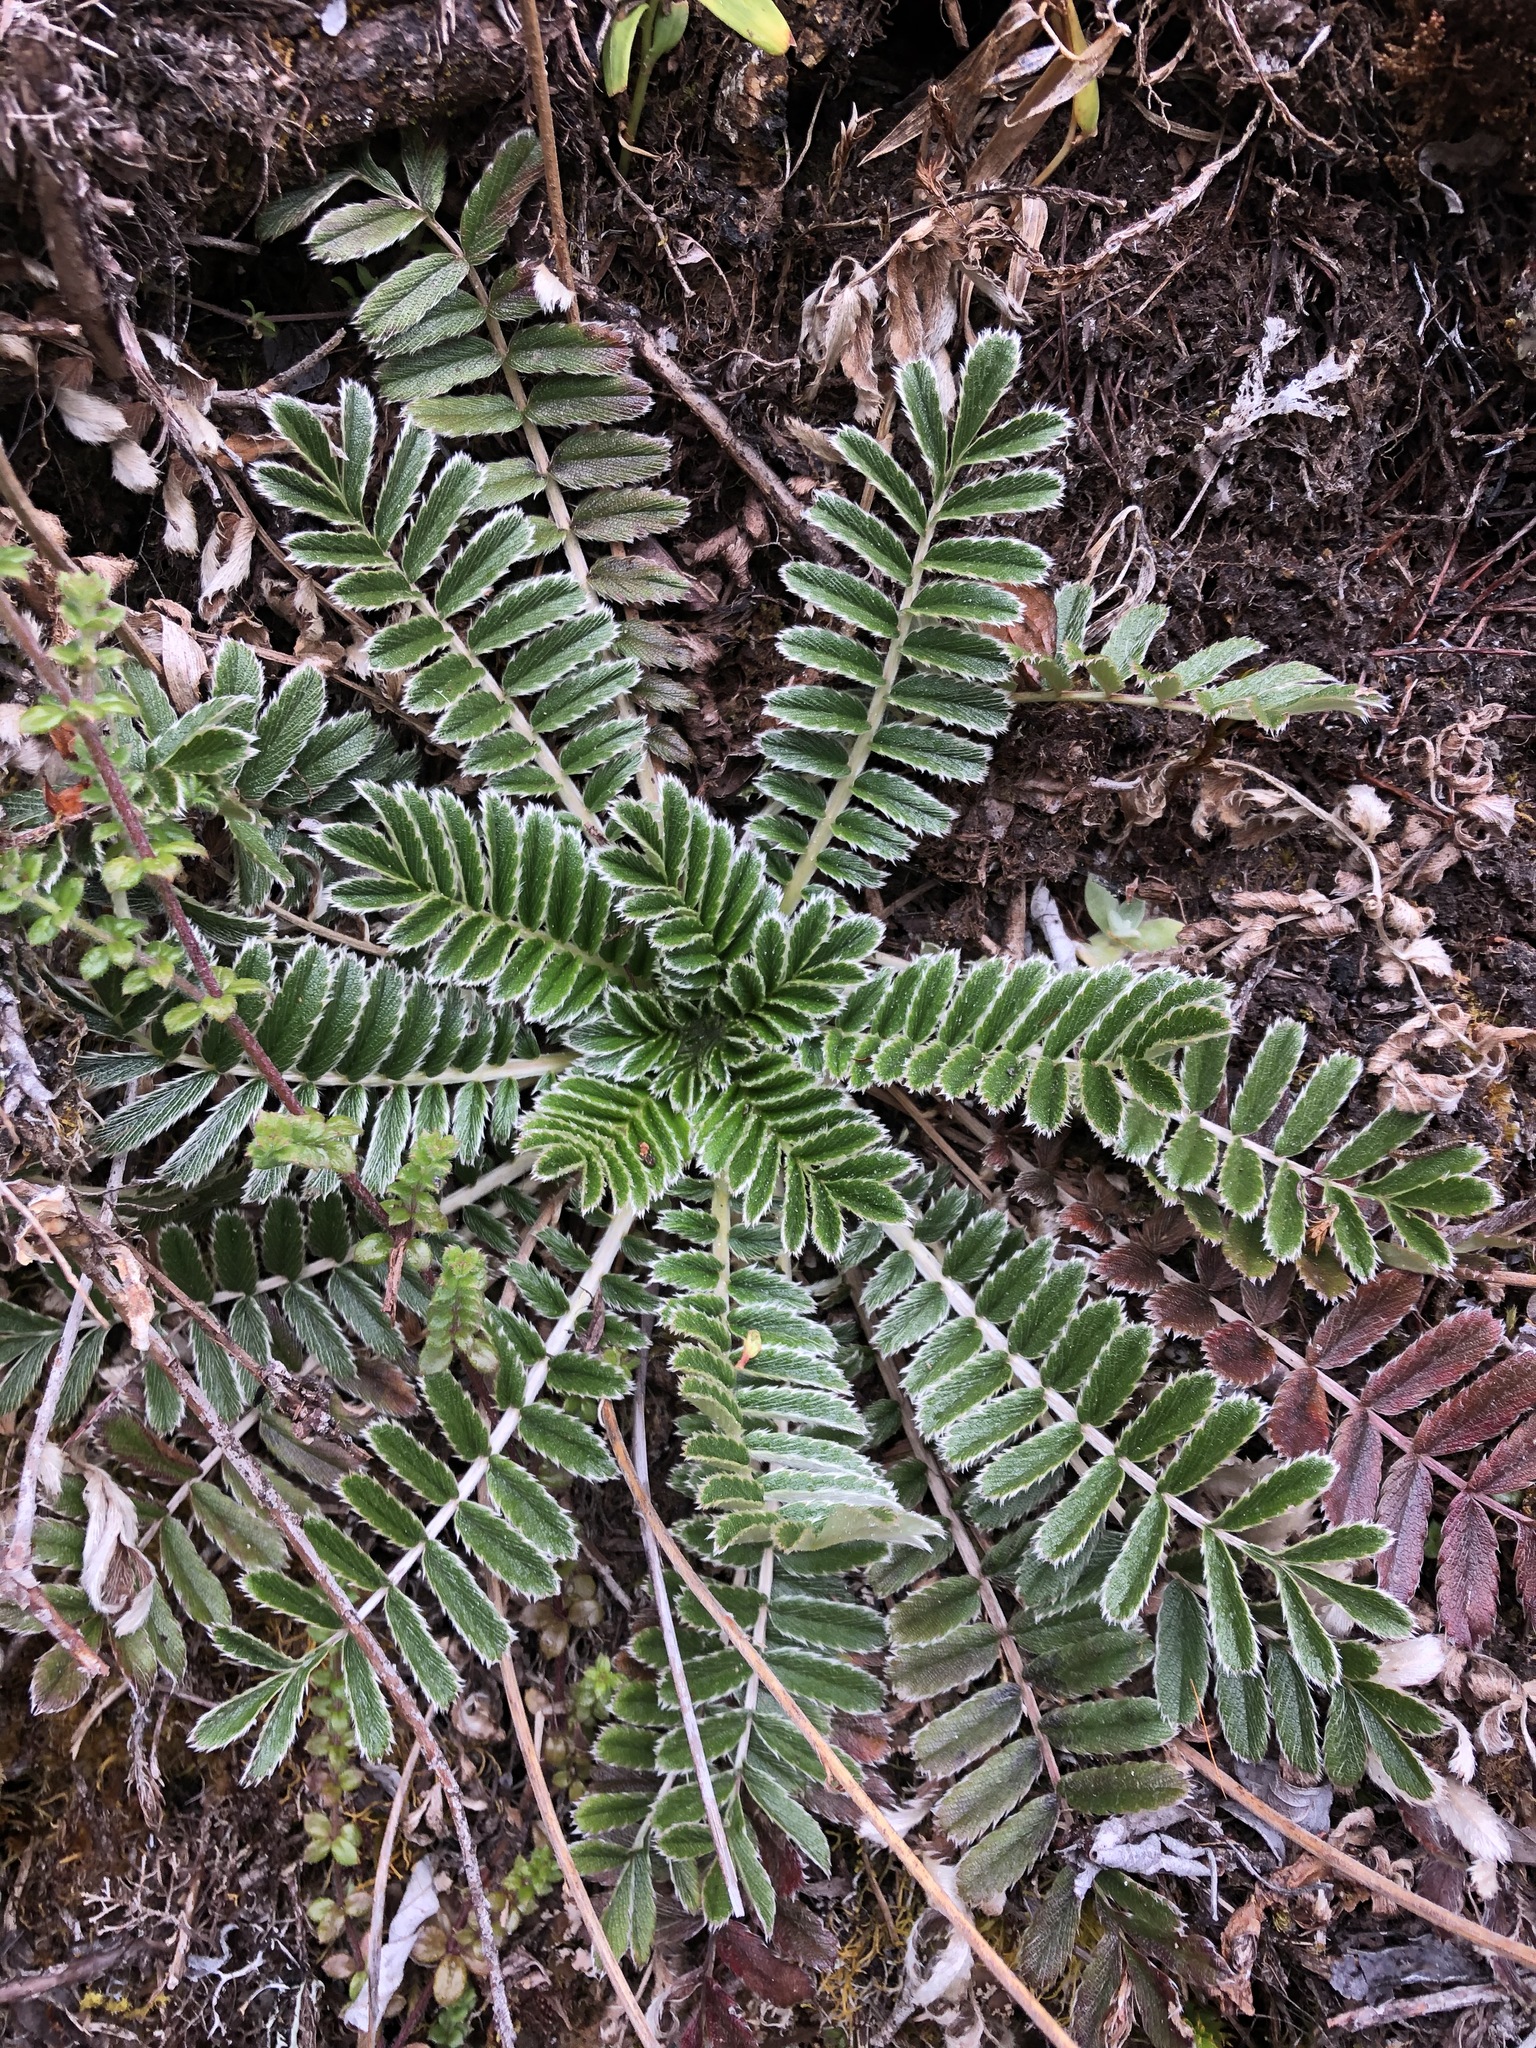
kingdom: Plantae
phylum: Tracheophyta
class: Magnoliopsida
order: Rosales
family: Rosaceae
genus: Acaena
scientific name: Acaena cylindristachya
